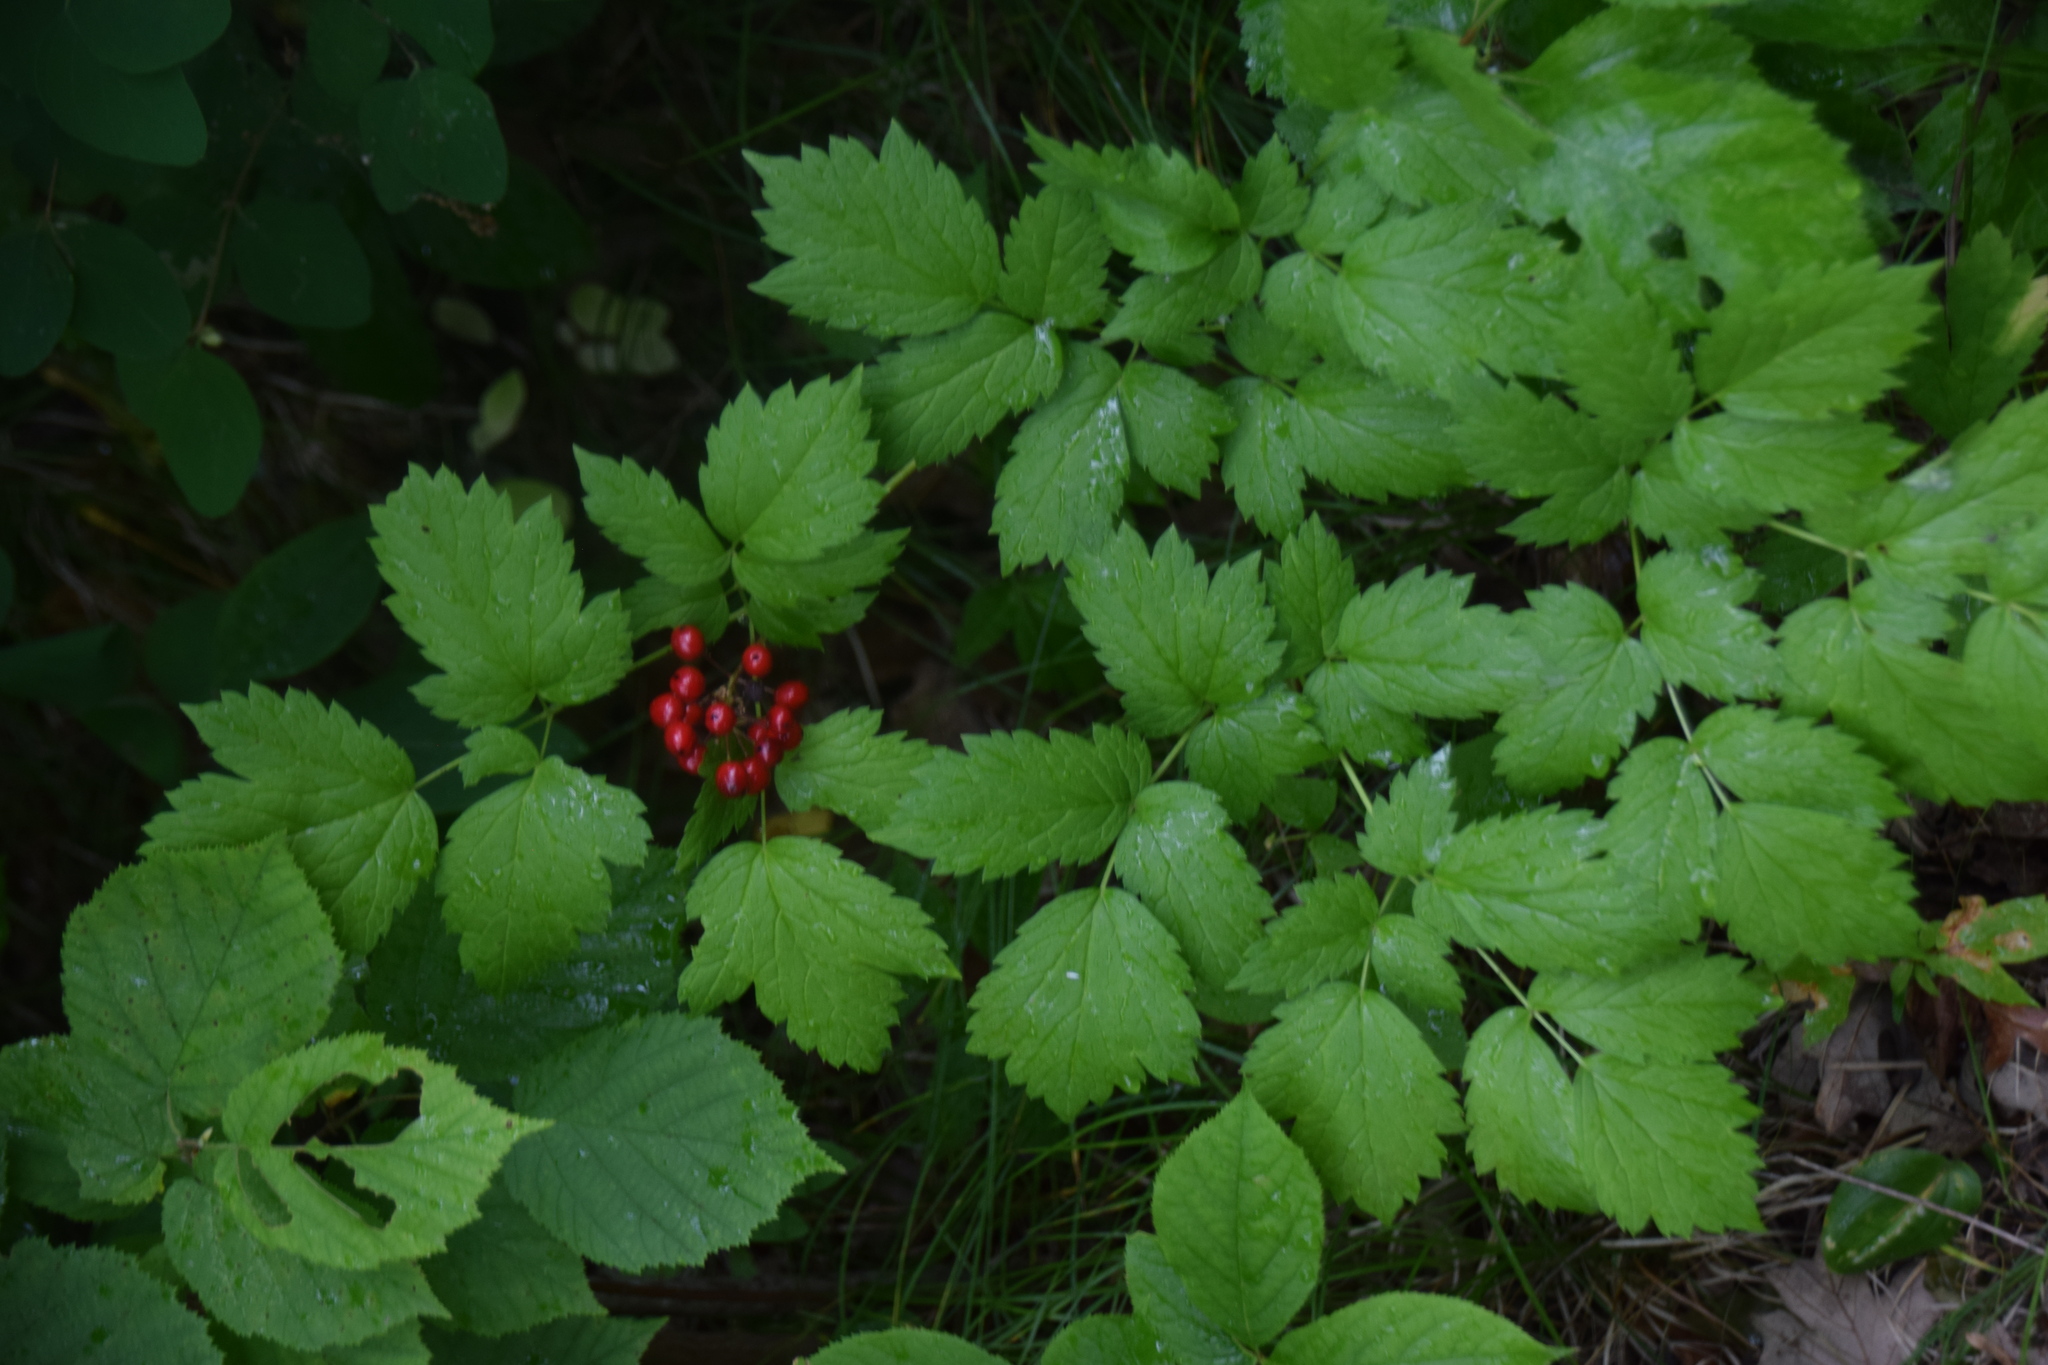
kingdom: Plantae
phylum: Tracheophyta
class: Magnoliopsida
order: Ranunculales
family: Ranunculaceae
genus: Actaea
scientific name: Actaea rubra
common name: Red baneberry
